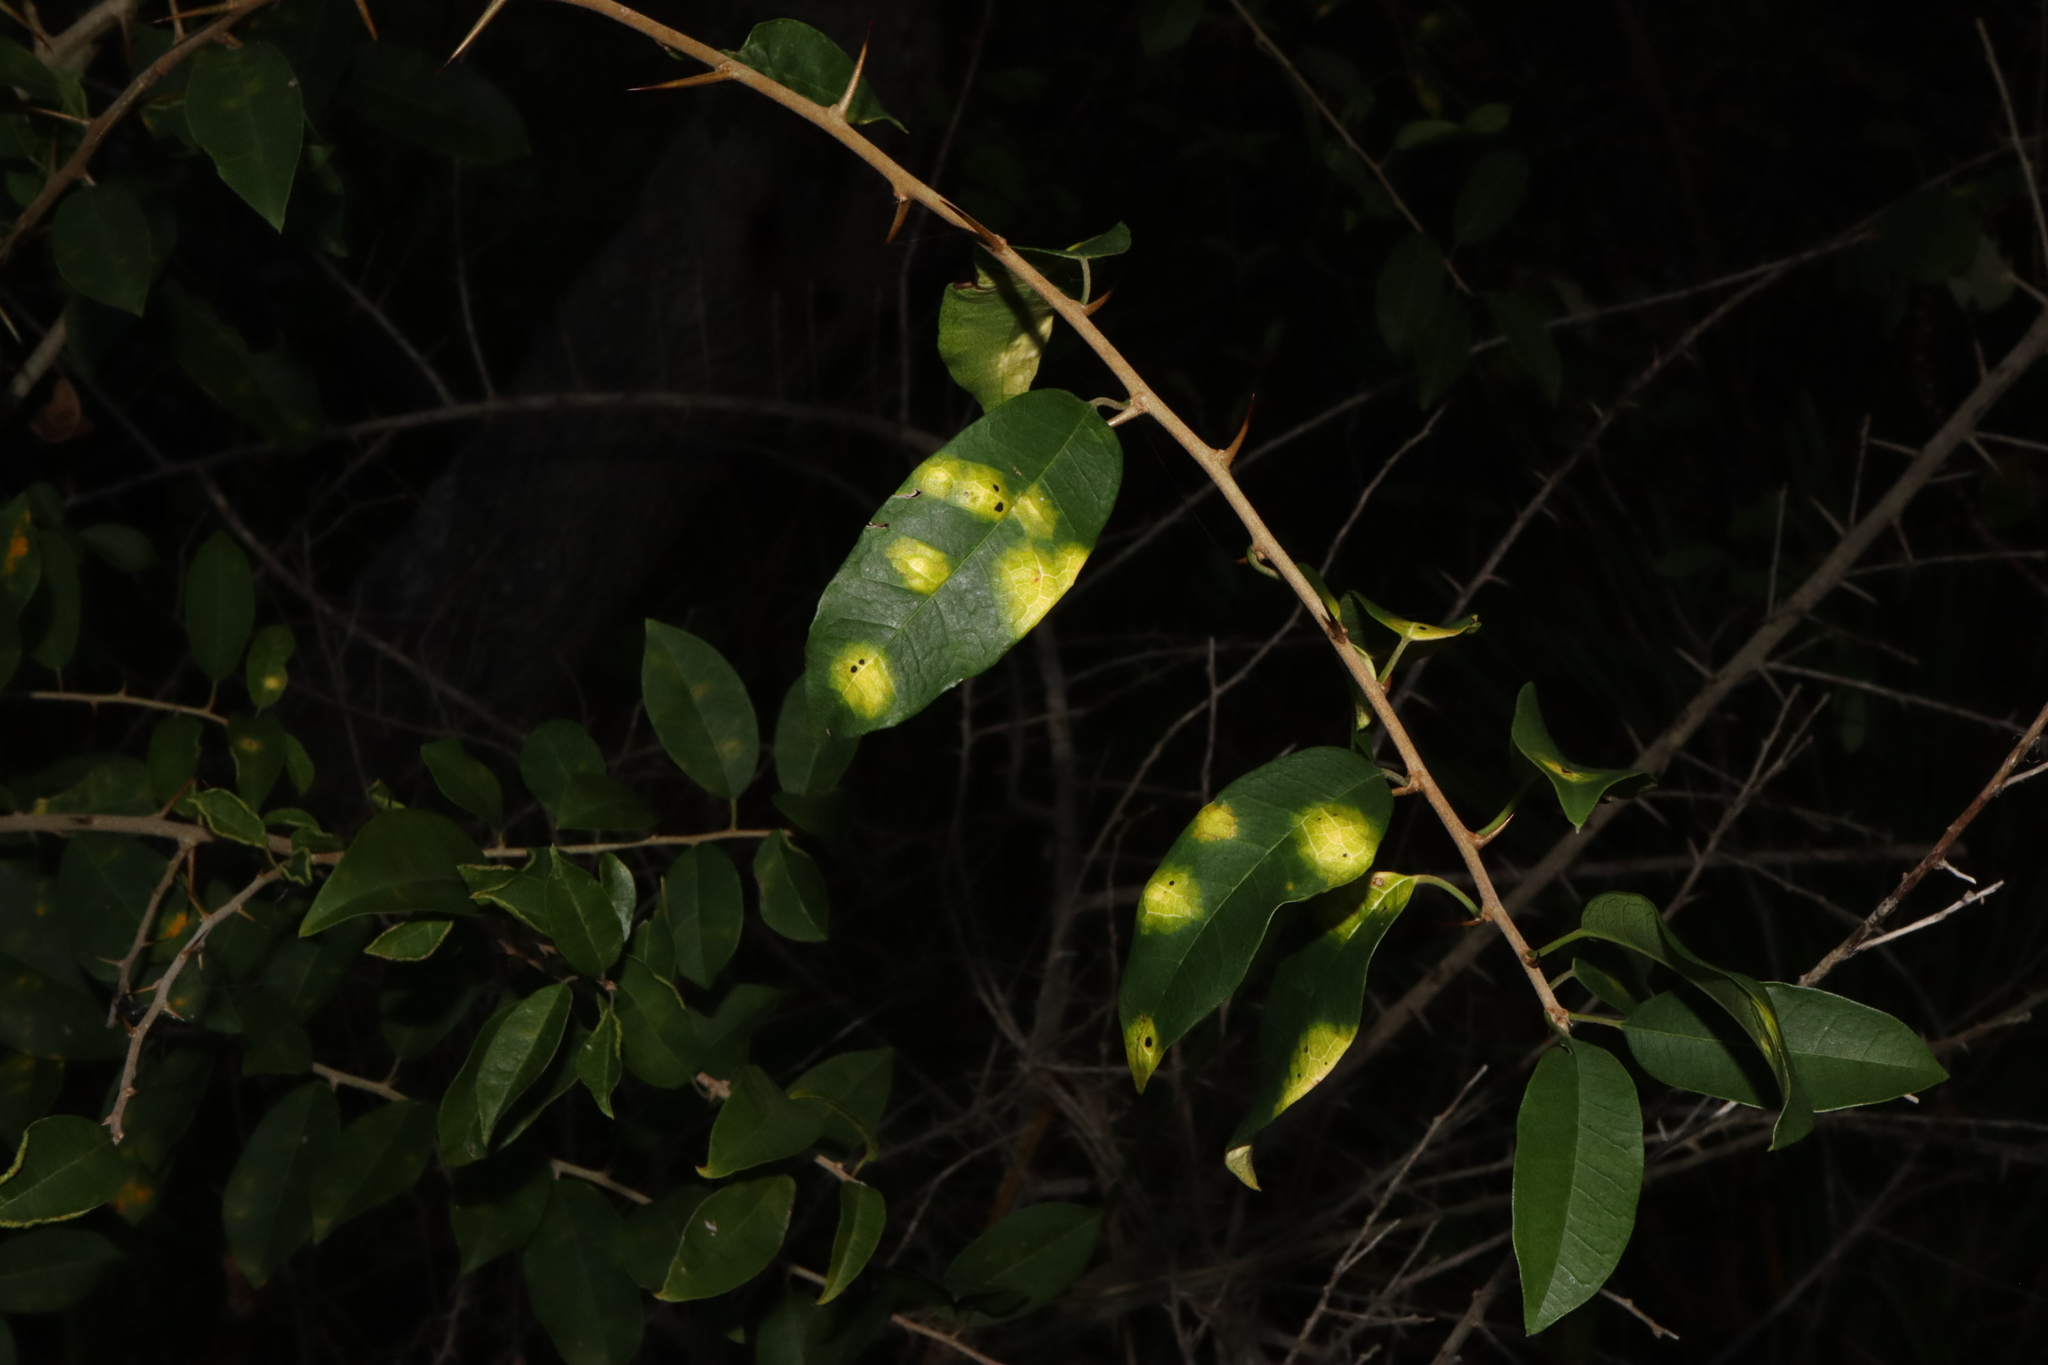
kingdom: Fungi
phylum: Ascomycota
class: Dothideomycetes
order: Mycosphaerellales
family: Mycosphaerellaceae
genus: Zasmidium
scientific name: Zasmidium macluricola
